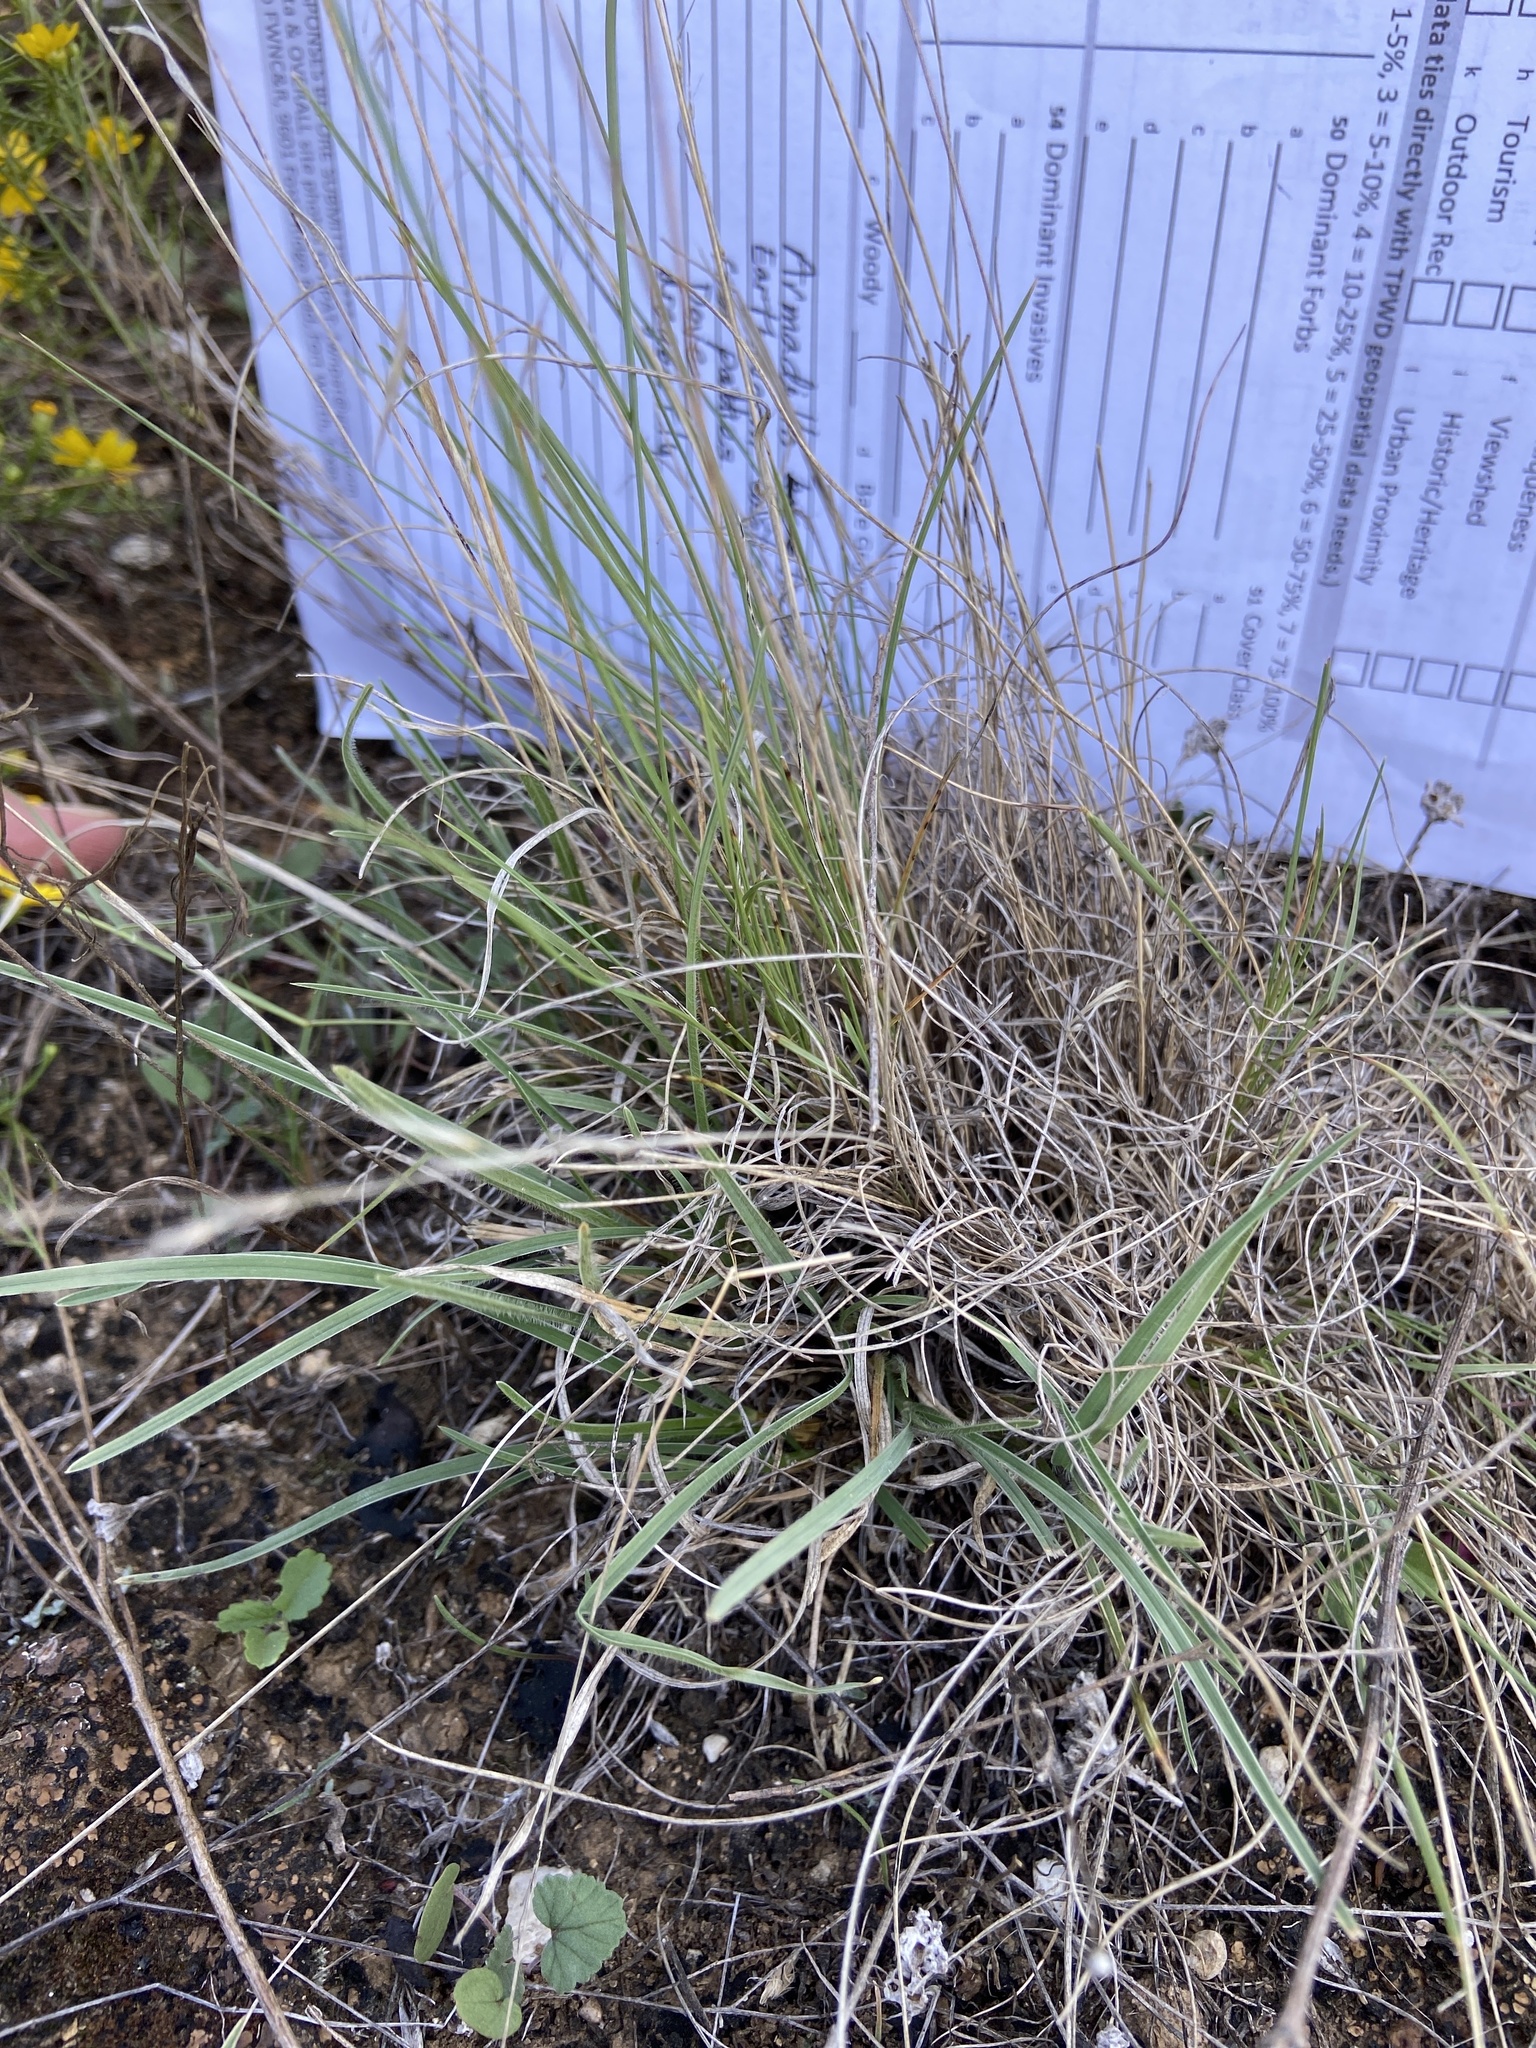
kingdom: Plantae
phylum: Tracheophyta
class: Liliopsida
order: Poales
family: Poaceae
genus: Bouteloua
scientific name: Bouteloua curtipendula
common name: Side-oats grama
